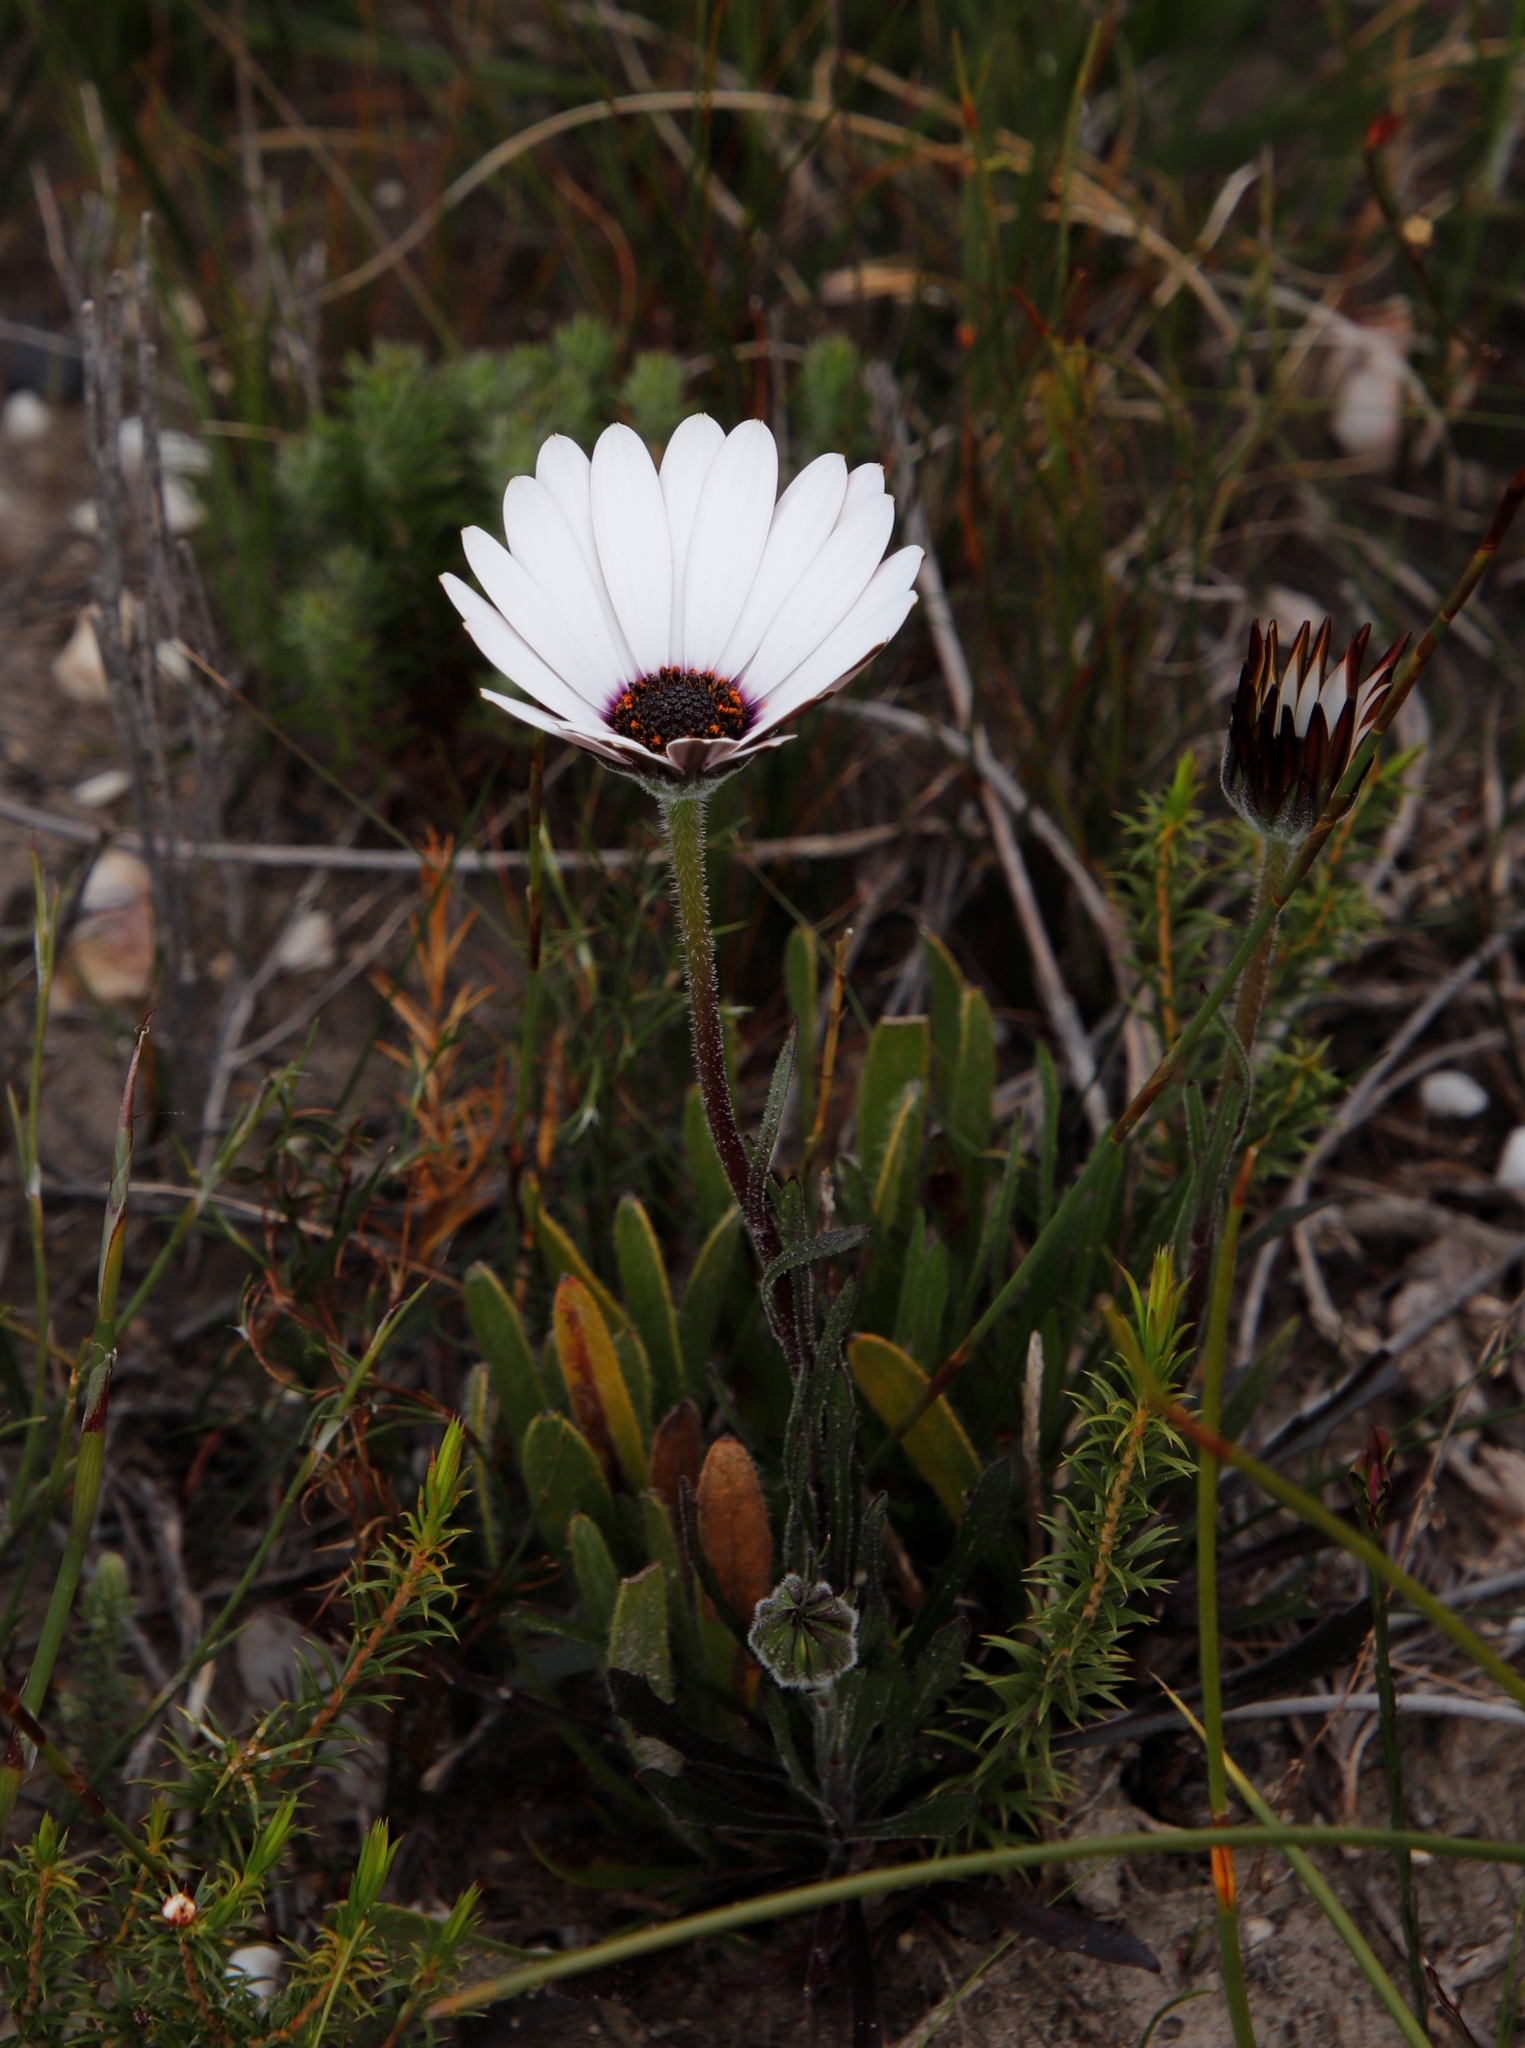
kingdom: Plantae
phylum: Tracheophyta
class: Magnoliopsida
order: Asterales
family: Asteraceae
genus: Dimorphotheca
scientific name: Dimorphotheca nudicaulis
